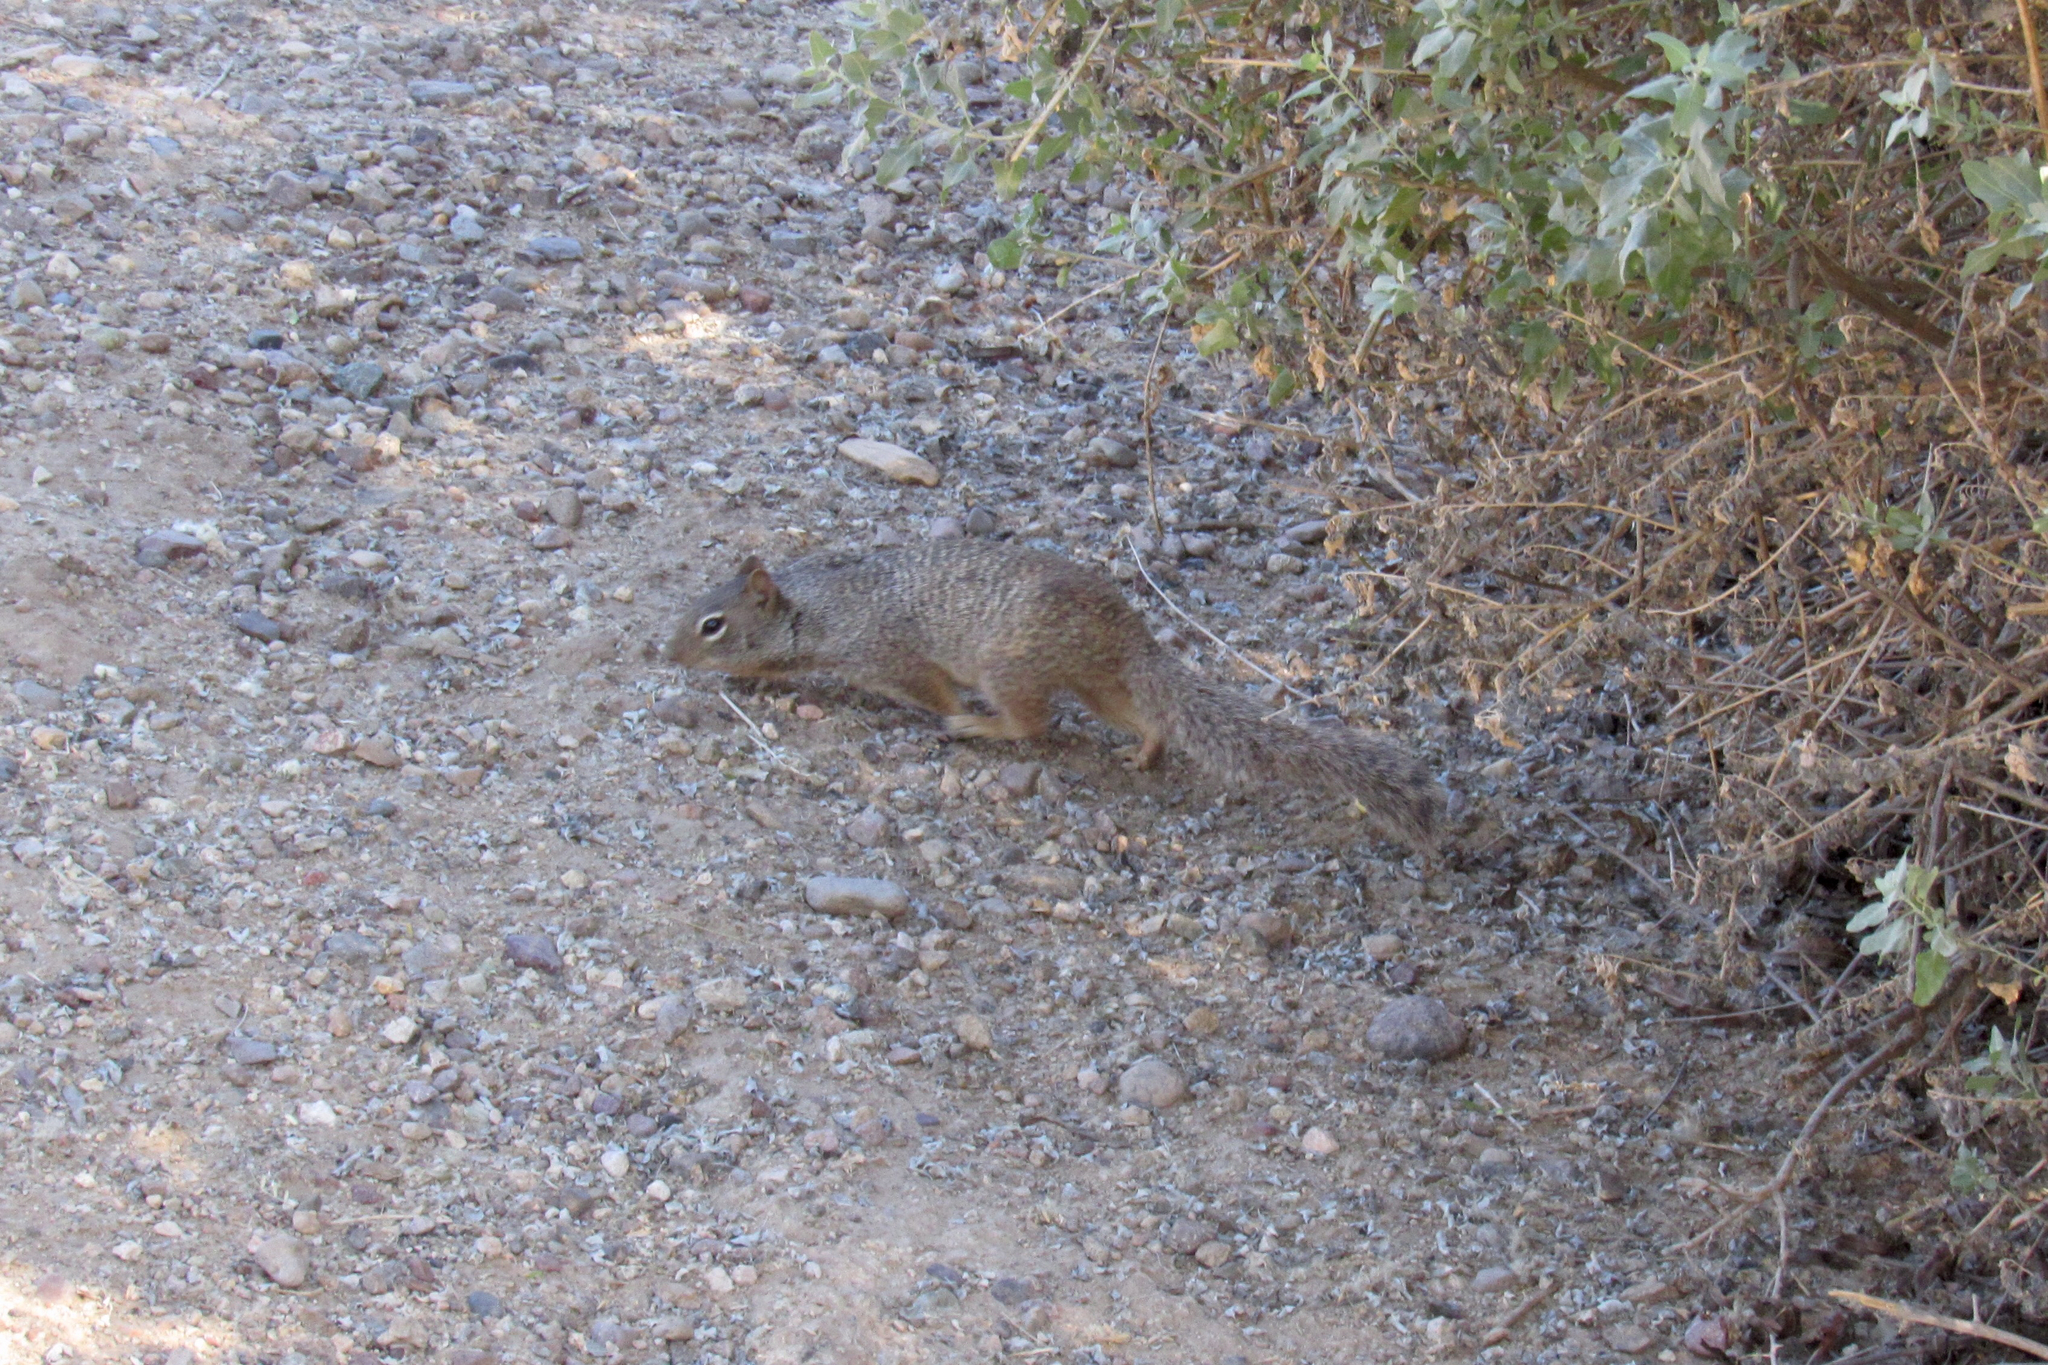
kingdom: Animalia
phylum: Chordata
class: Mammalia
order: Rodentia
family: Sciuridae
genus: Otospermophilus
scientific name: Otospermophilus variegatus
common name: Rock squirrel
